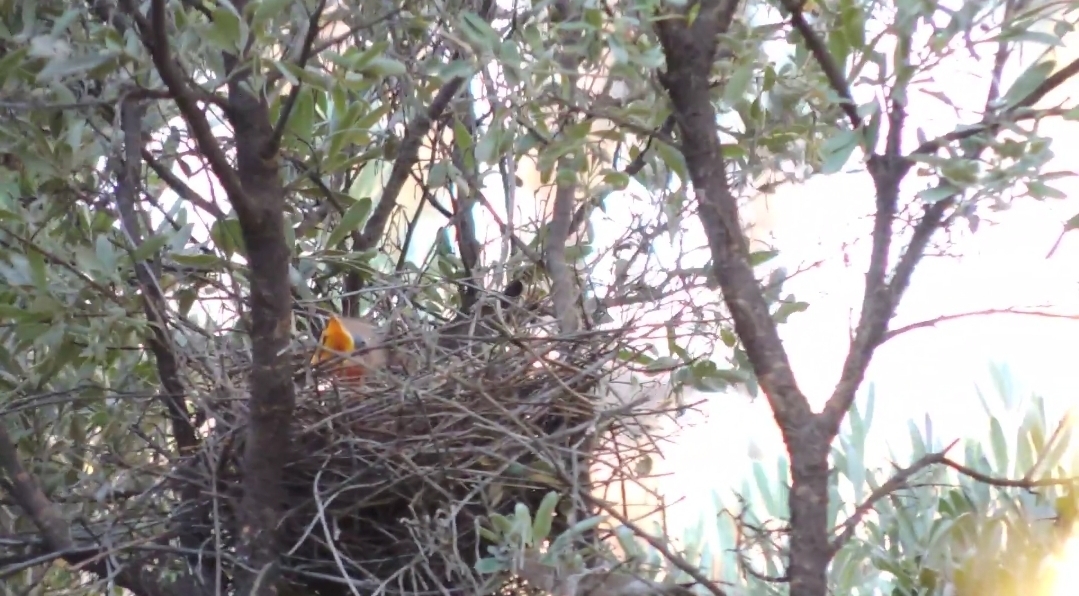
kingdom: Animalia
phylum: Chordata
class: Aves
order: Passeriformes
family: Meliphagidae
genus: Anthochaera
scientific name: Anthochaera carunculata
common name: Red wattlebird
